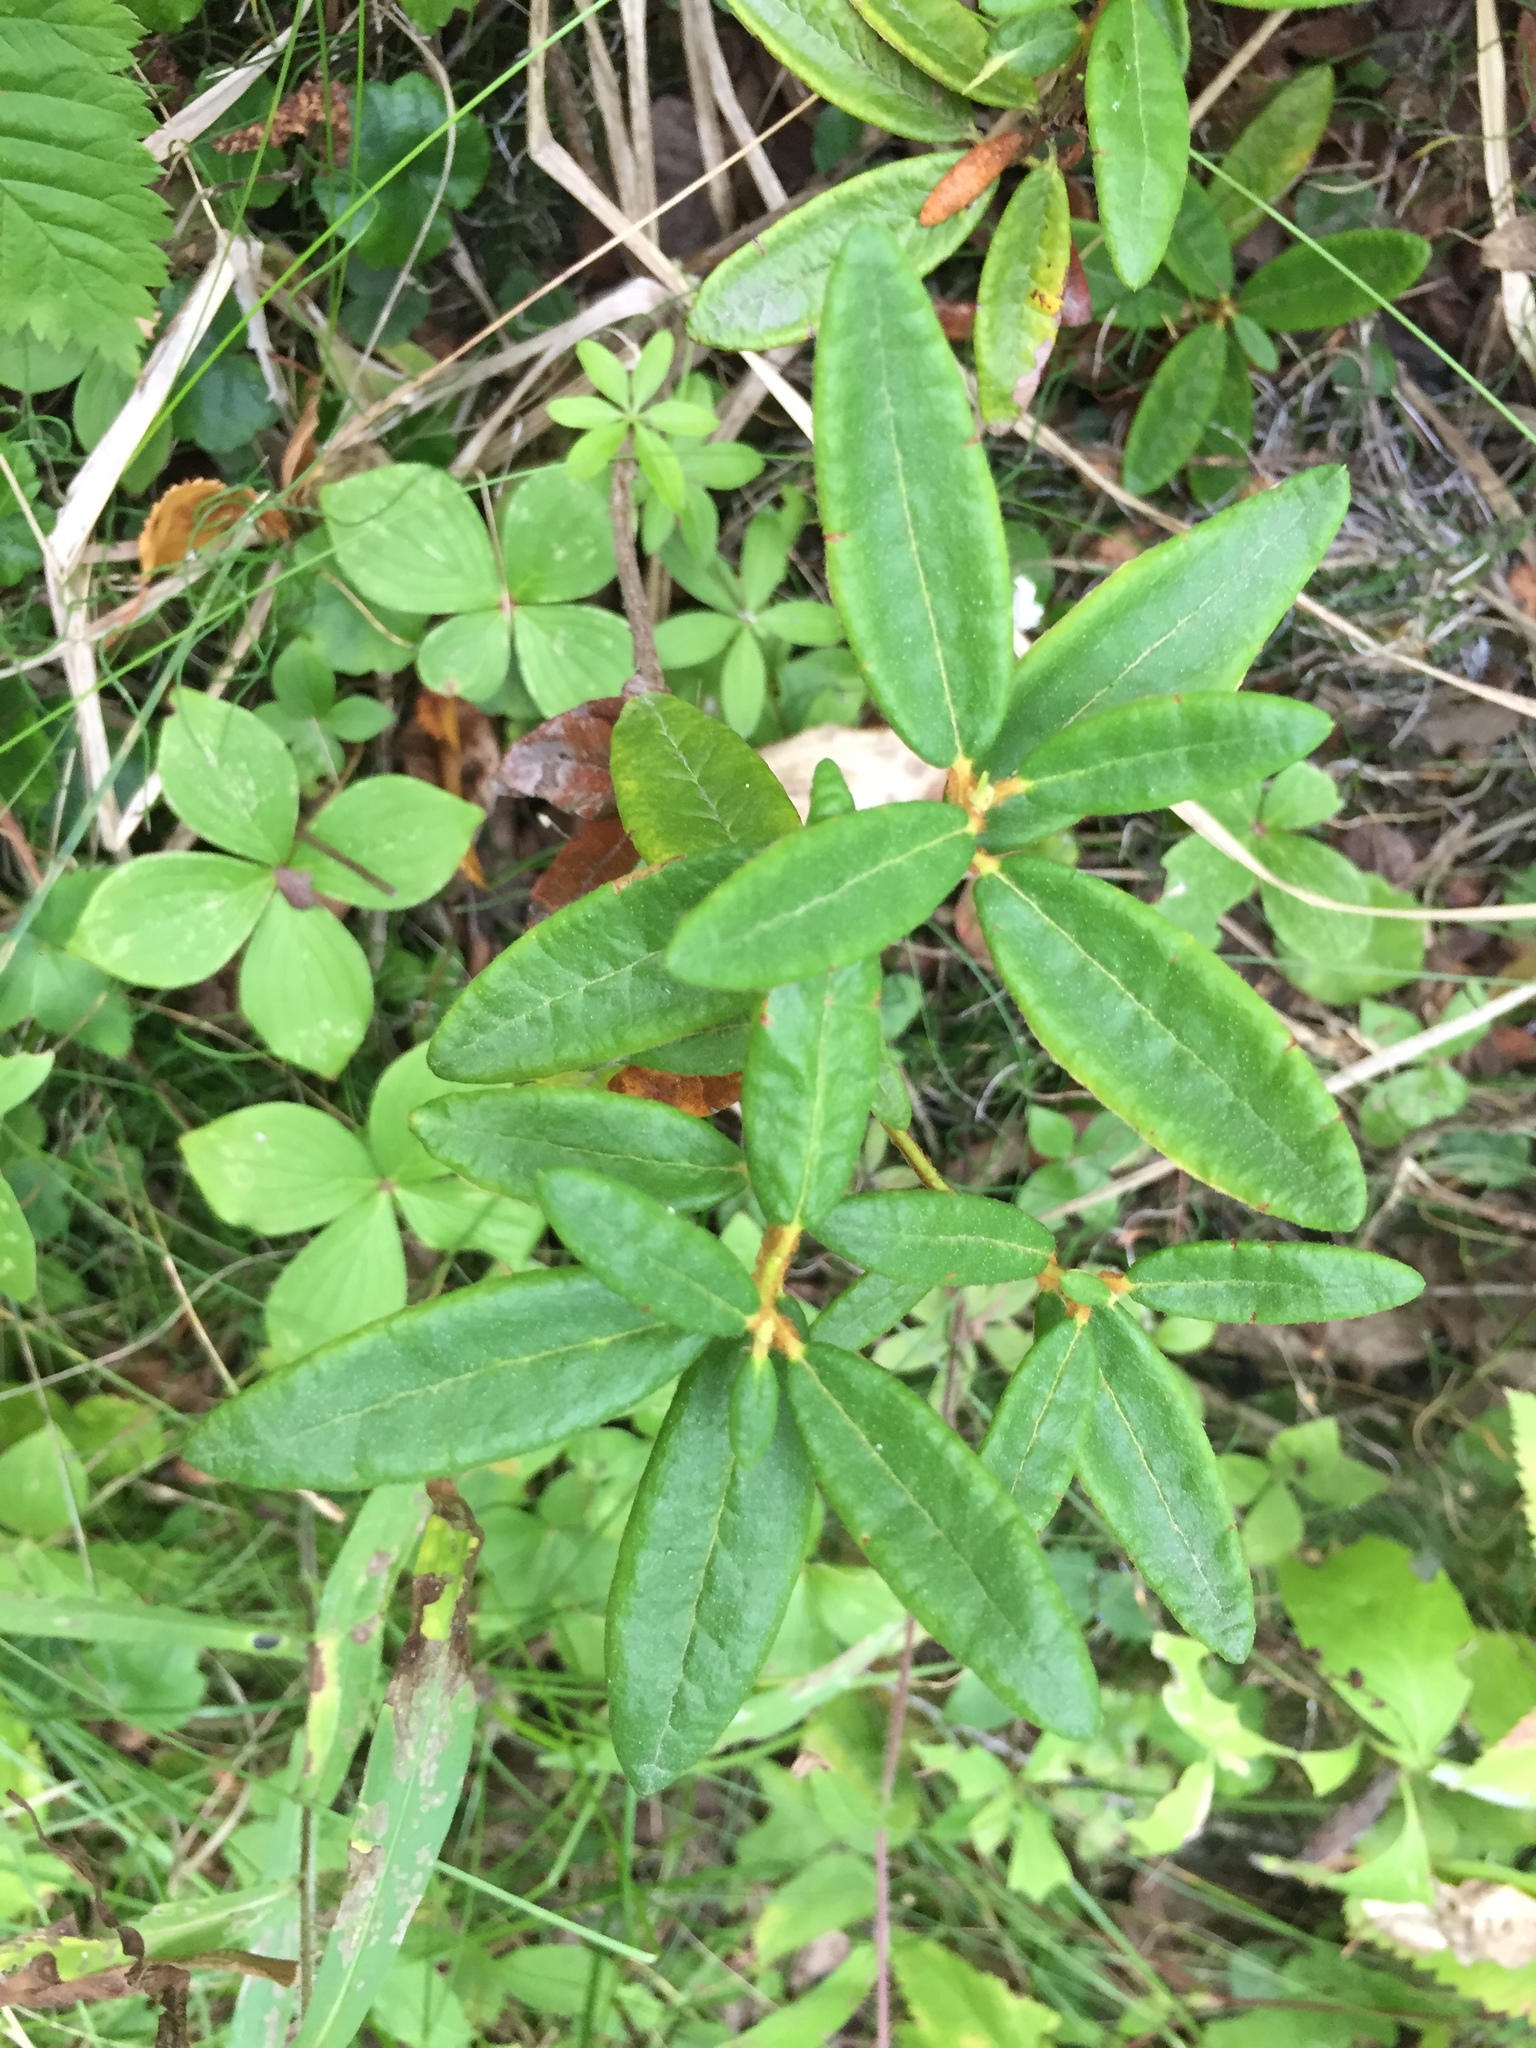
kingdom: Plantae
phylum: Tracheophyta
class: Magnoliopsida
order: Ericales
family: Ericaceae
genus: Rhododendron
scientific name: Rhododendron groenlandicum
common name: Bog labrador tea
